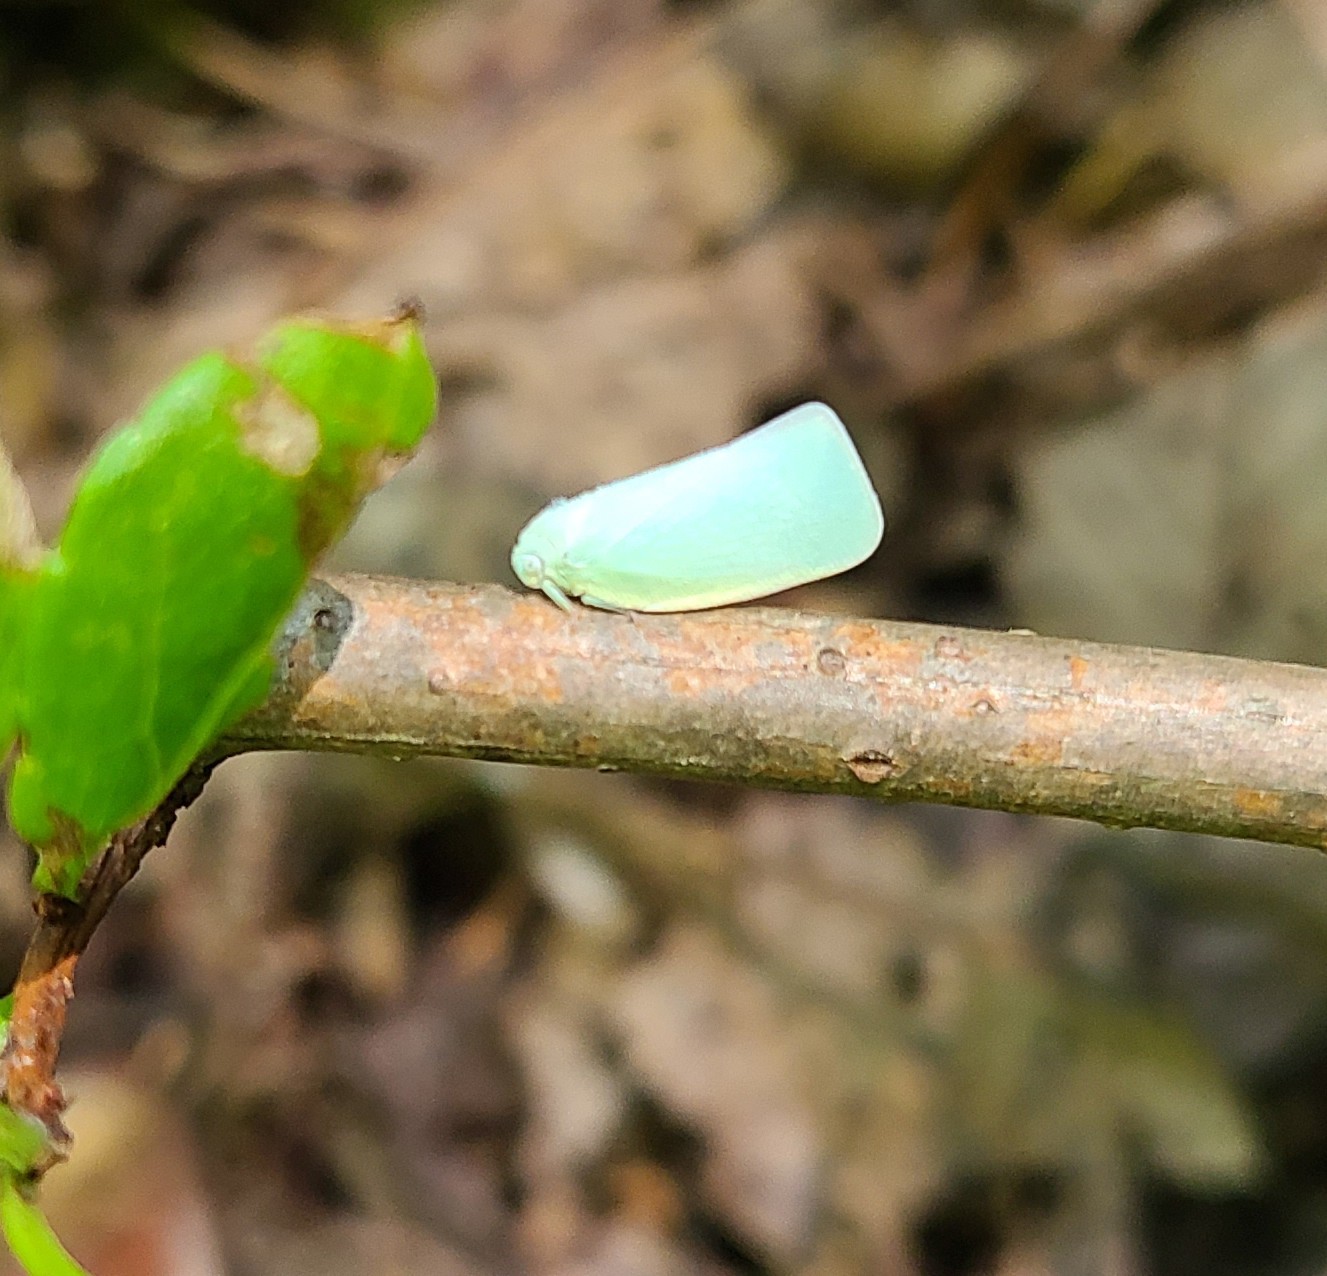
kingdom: Animalia
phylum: Arthropoda
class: Insecta
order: Hemiptera
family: Flatidae
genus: Flatormenis
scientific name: Flatormenis proxima
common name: Northern flatid planthopper
